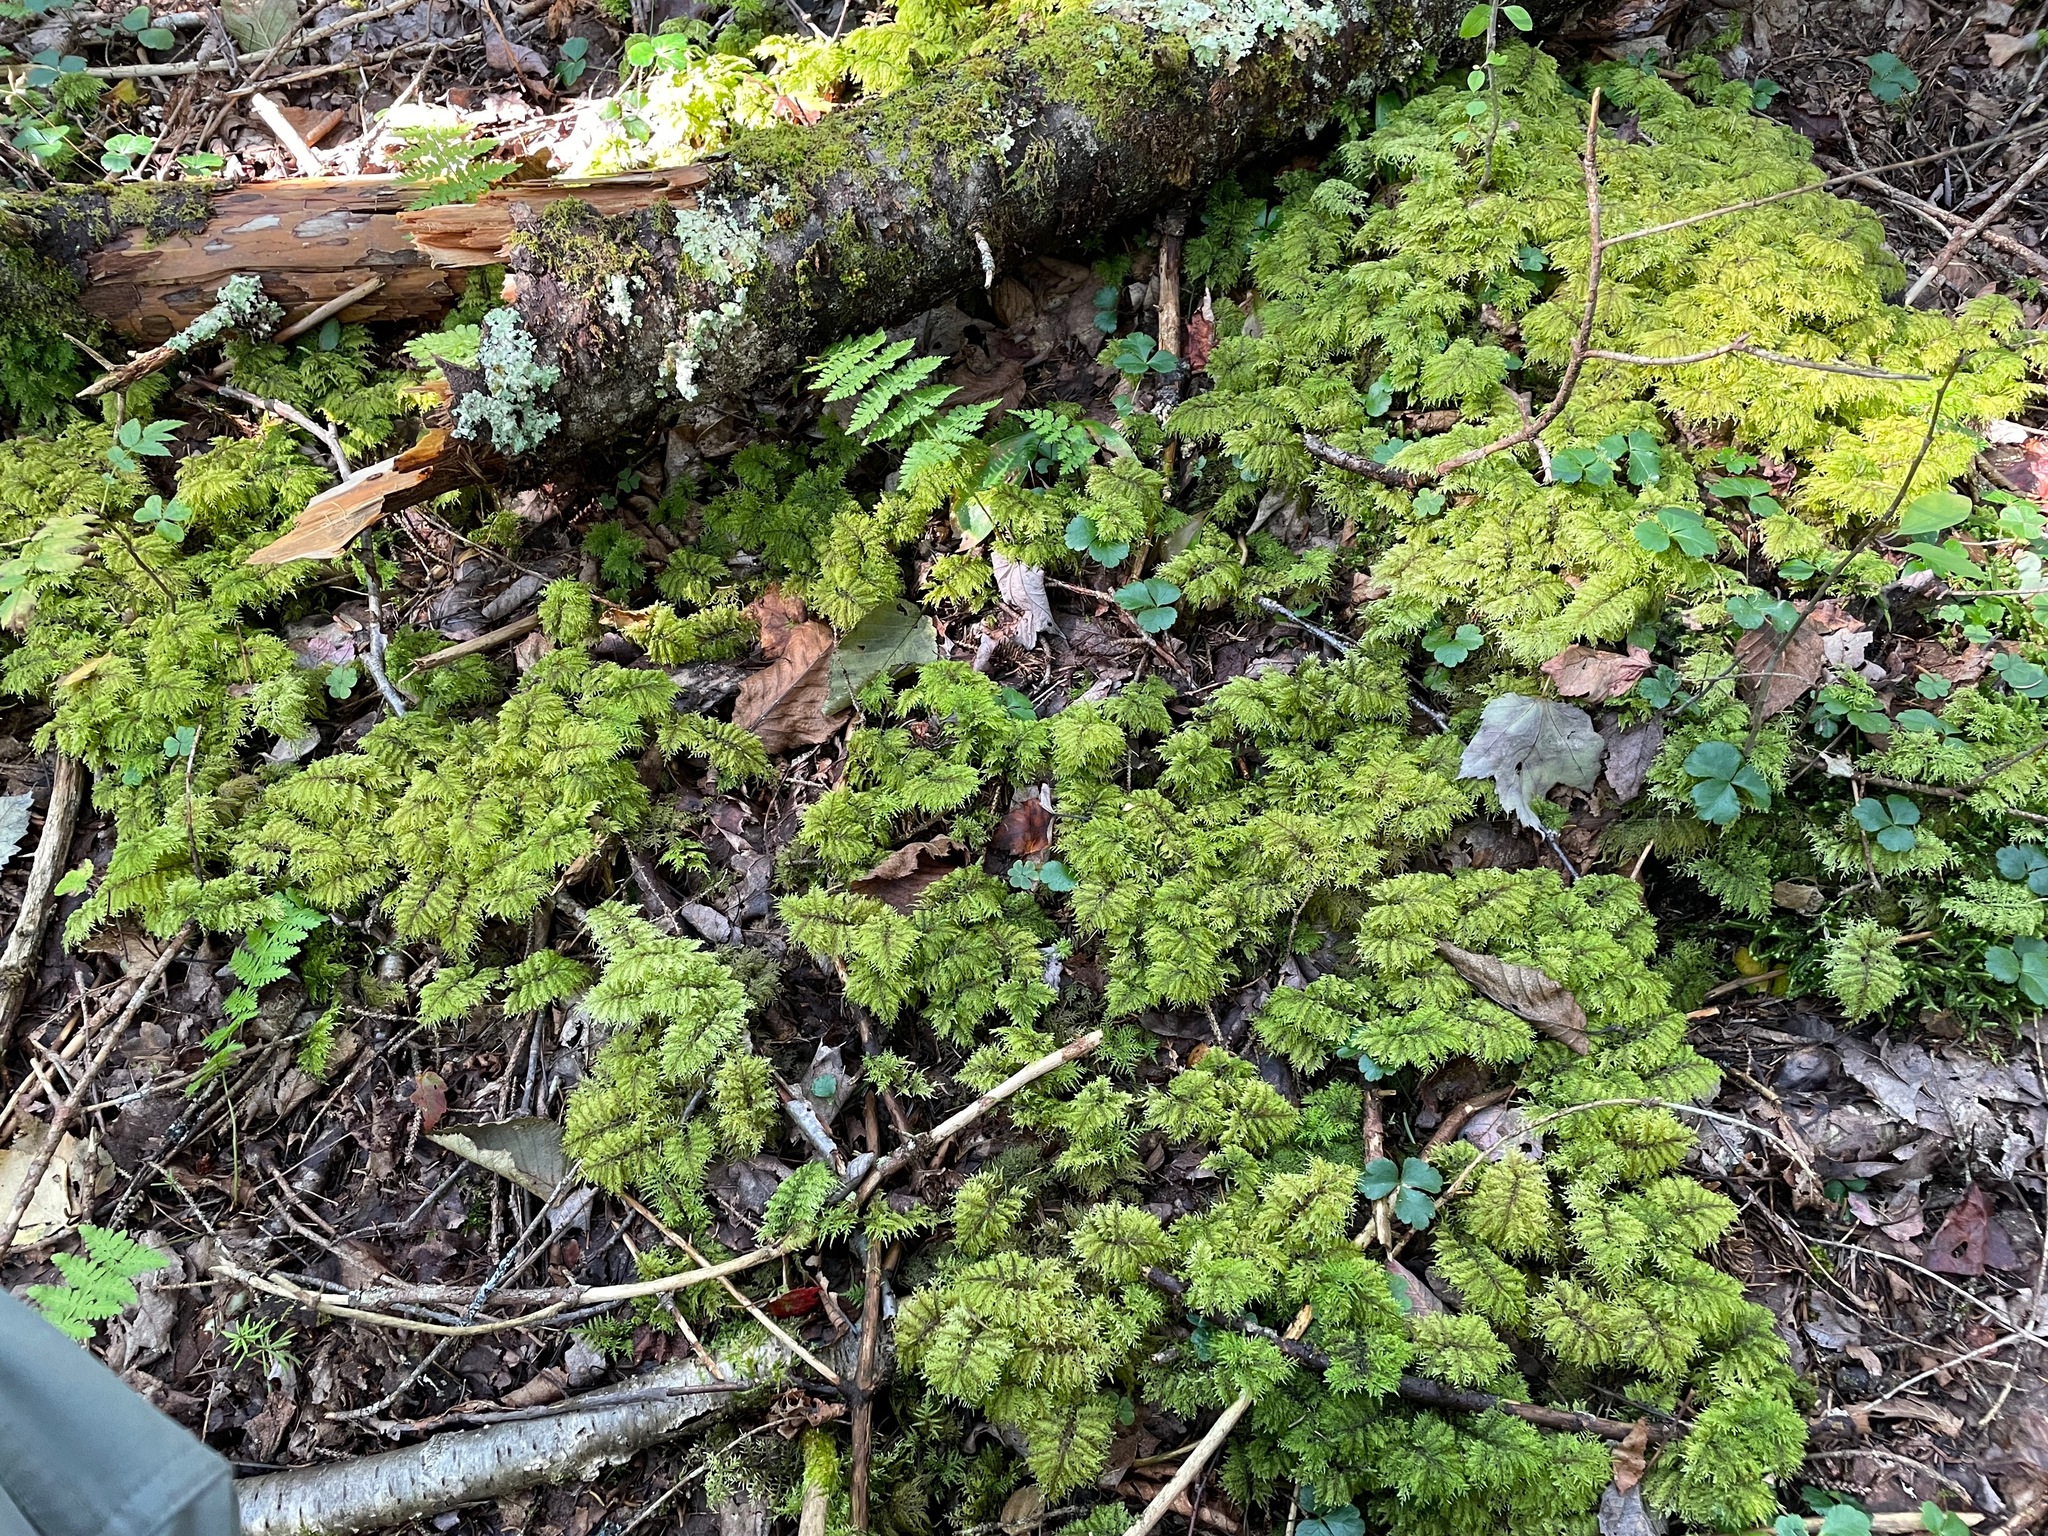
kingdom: Plantae
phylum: Bryophyta
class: Bryopsida
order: Hypnales
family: Hylocomiaceae
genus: Hylocomium
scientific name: Hylocomium splendens
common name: Stairstep moss
